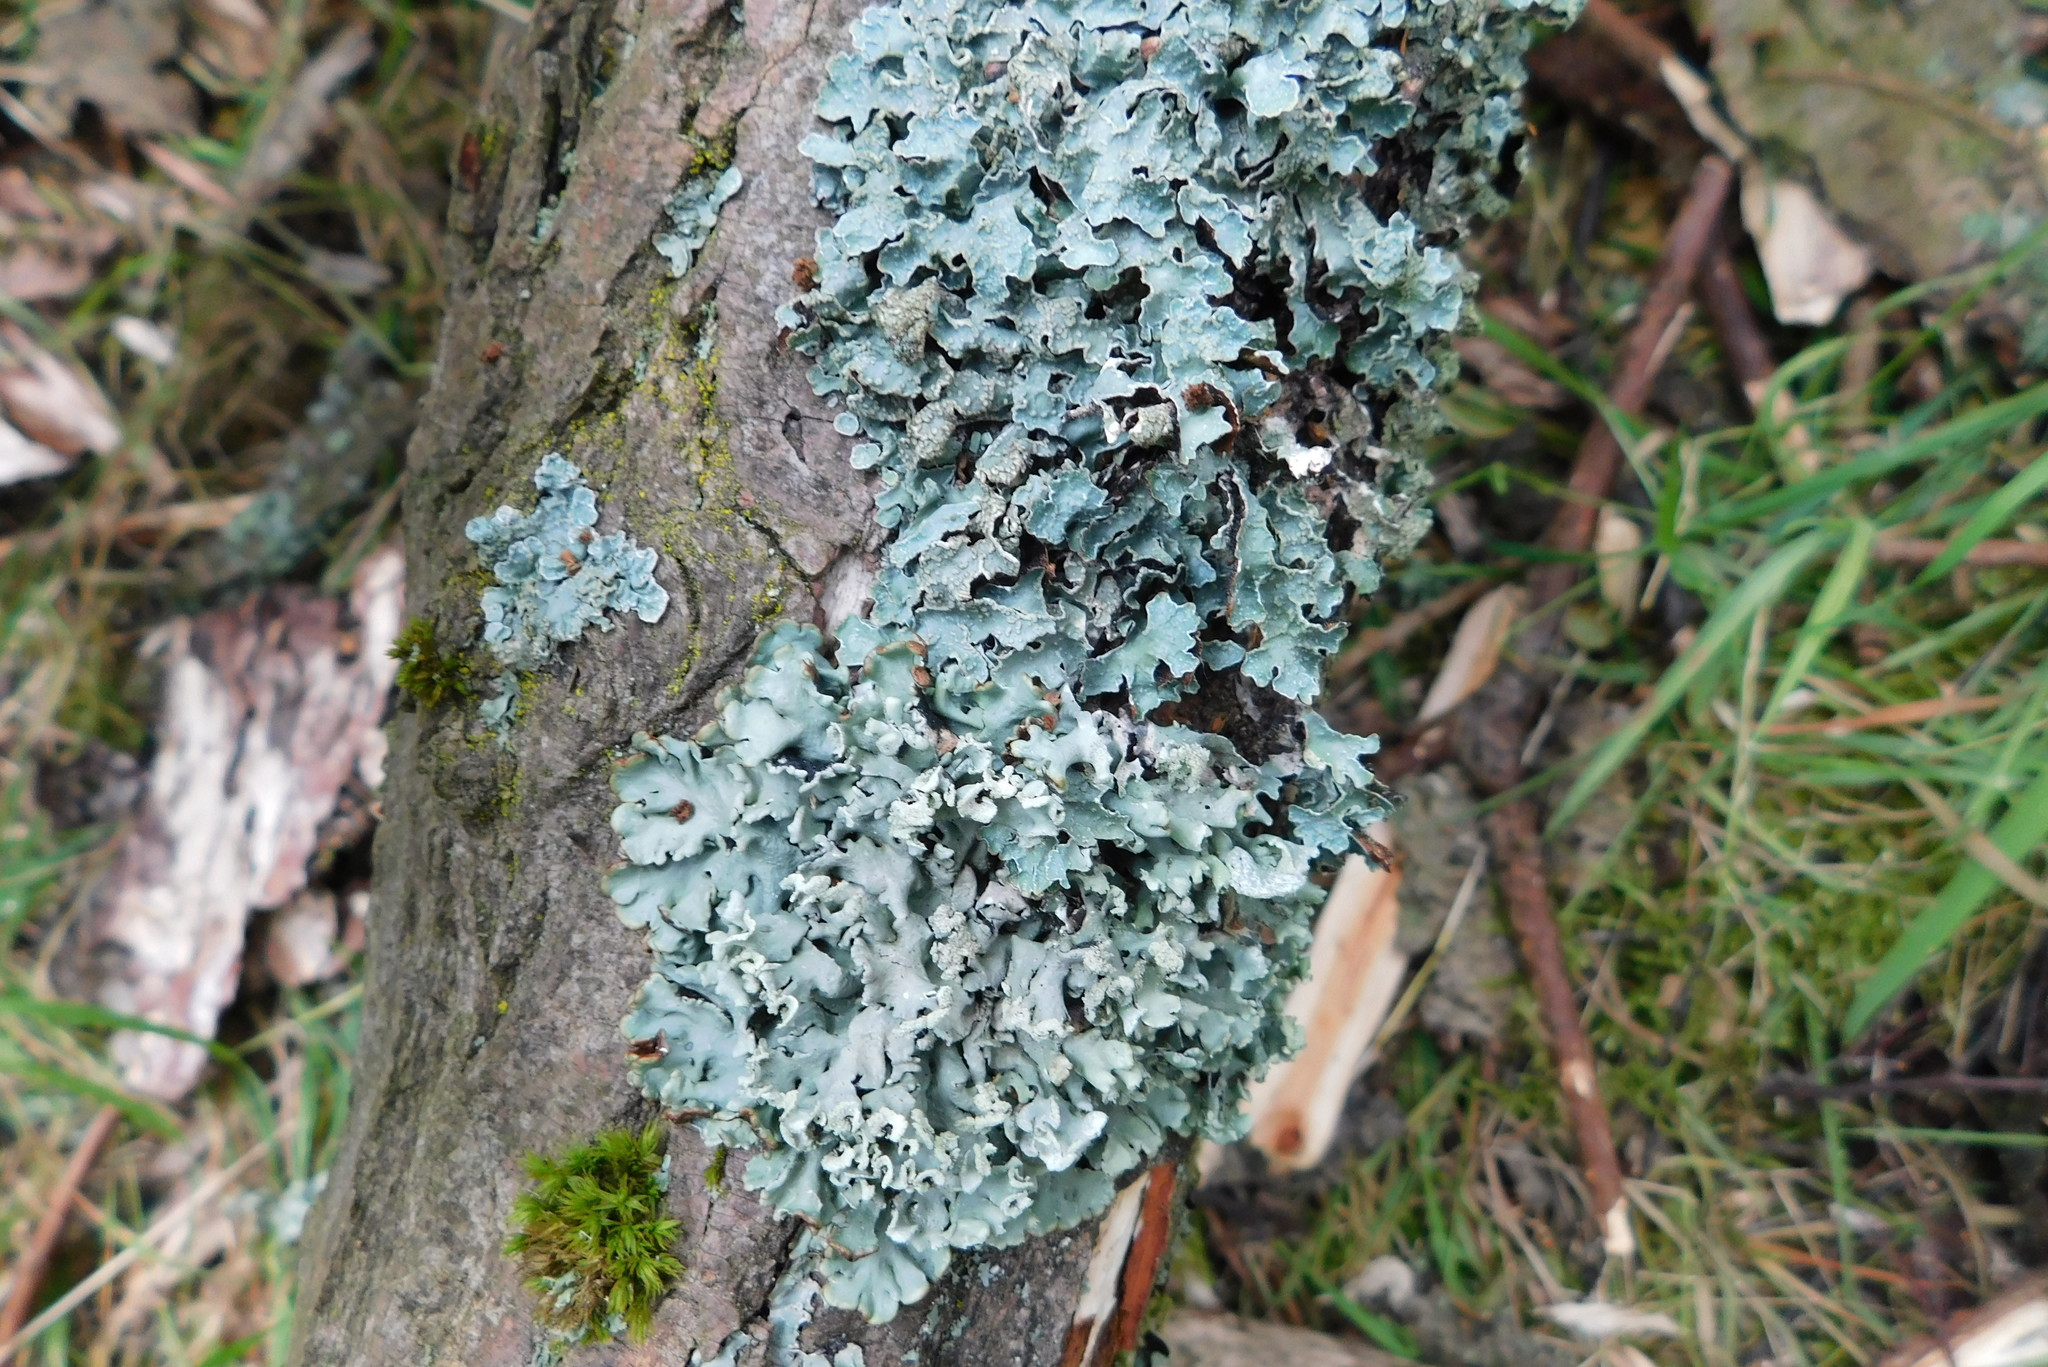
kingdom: Fungi
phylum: Ascomycota
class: Lecanoromycetes
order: Lecanorales
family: Parmeliaceae
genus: Hypogymnia
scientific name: Hypogymnia physodes
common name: Dark crottle
